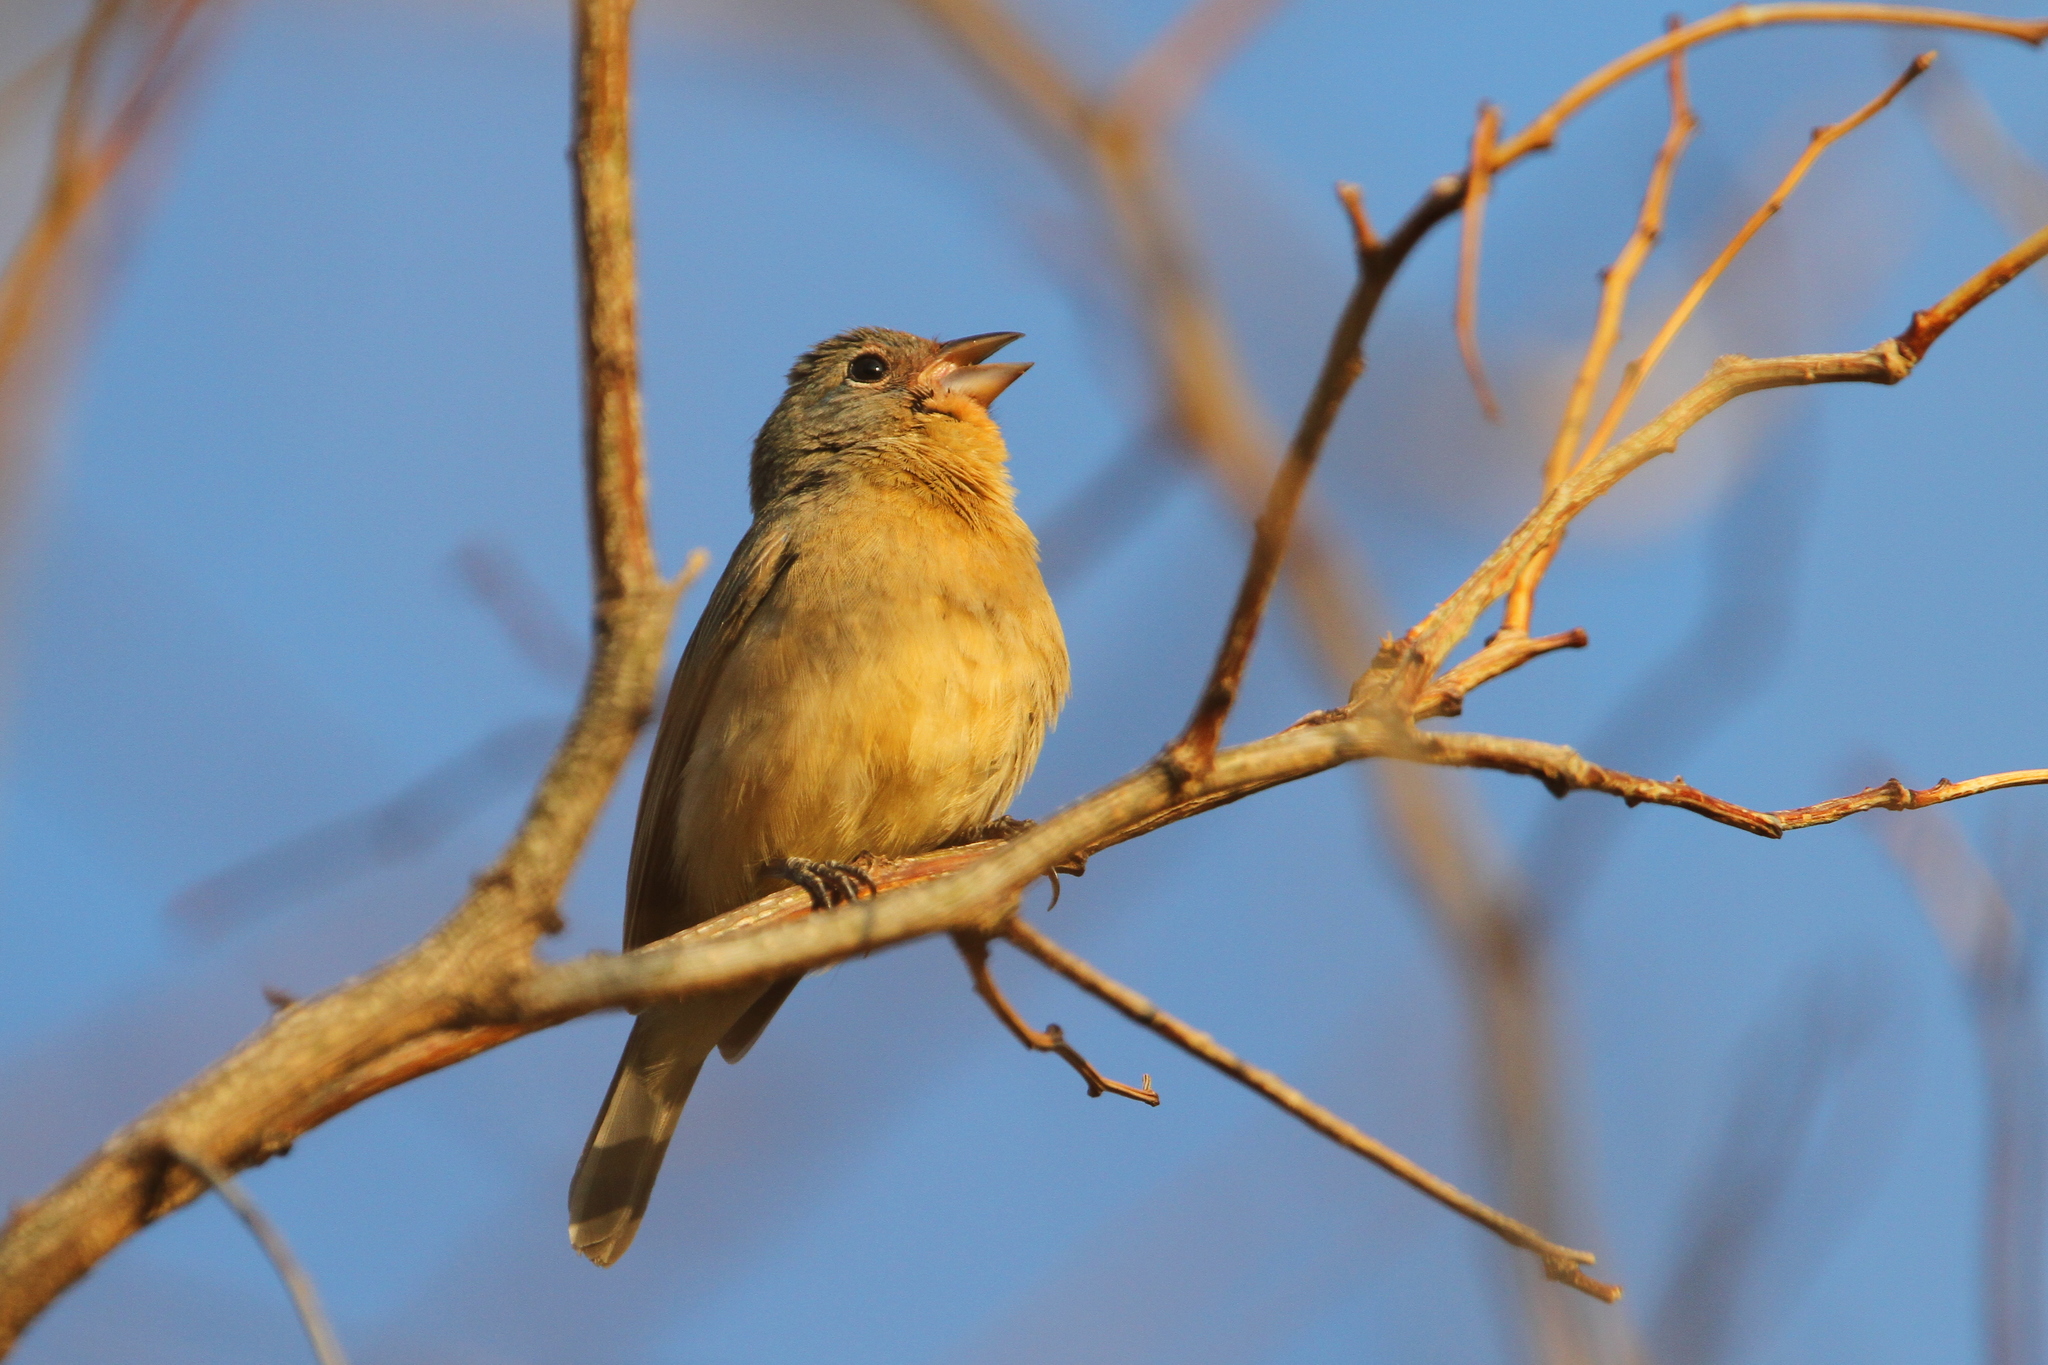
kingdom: Animalia
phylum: Chordata
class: Aves
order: Passeriformes
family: Cardinalidae
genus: Passerina
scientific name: Passerina rositae
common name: Rose-bellied bunting
